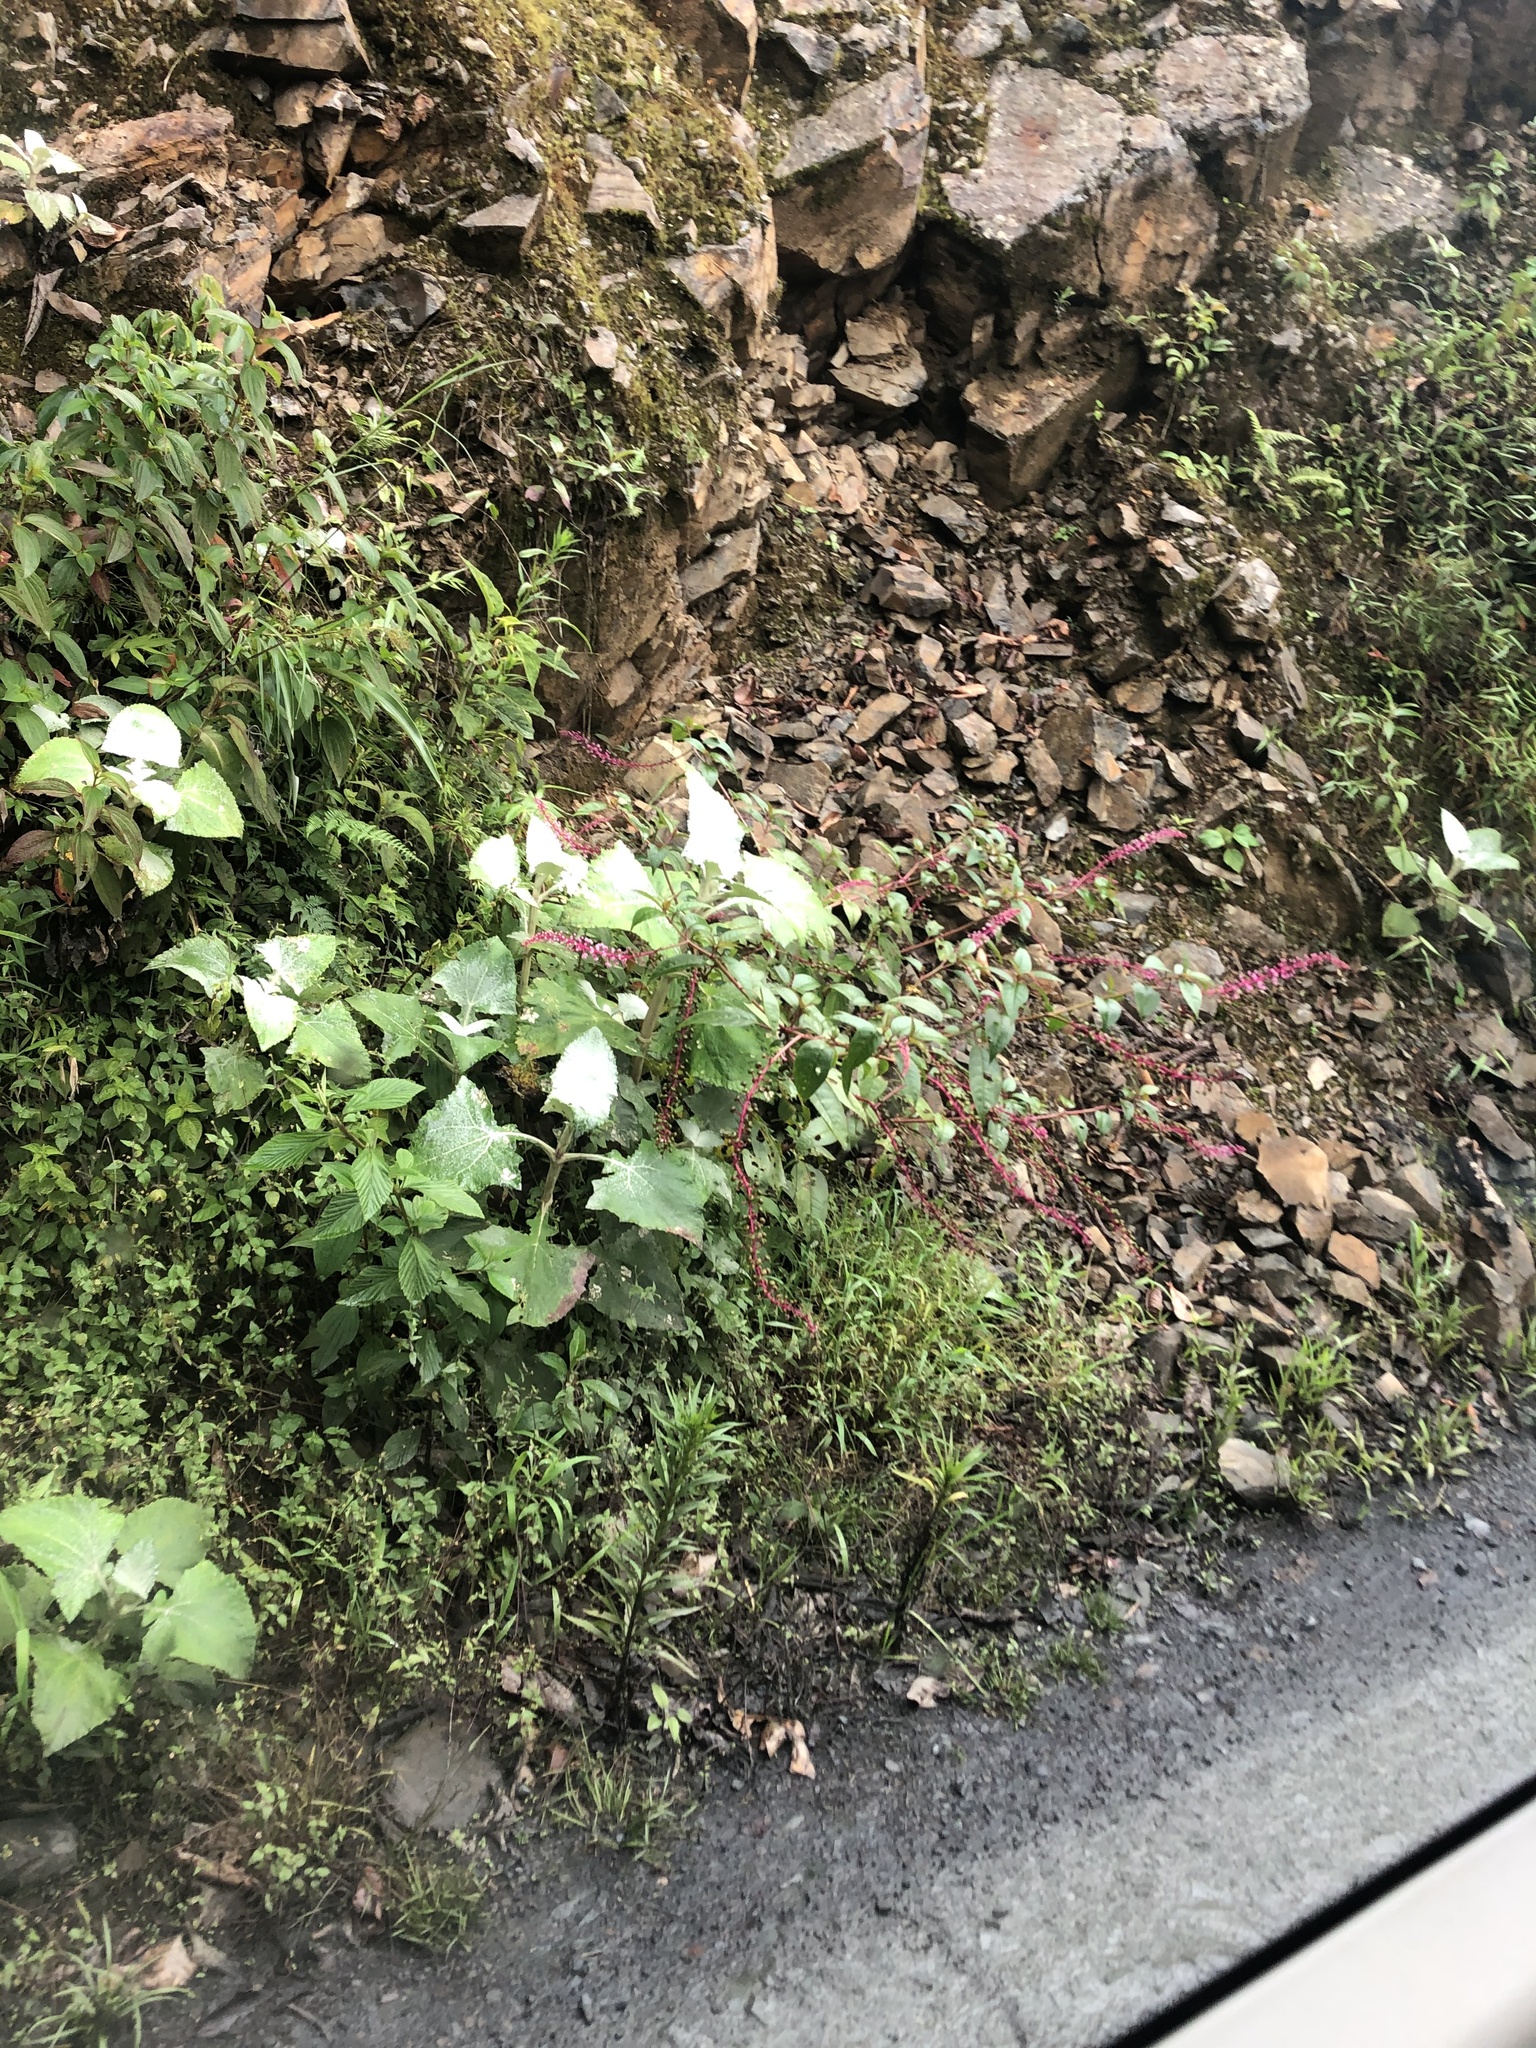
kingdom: Plantae
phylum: Tracheophyta
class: Magnoliopsida
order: Caryophyllales
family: Phytolaccaceae
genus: Phytolacca
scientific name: Phytolacca rivinoides
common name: Venezuelan pokeweed
